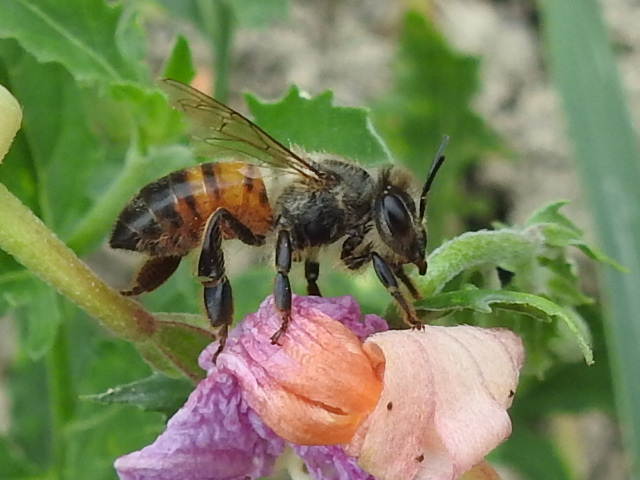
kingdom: Animalia
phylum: Arthropoda
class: Insecta
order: Hymenoptera
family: Apidae
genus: Apis
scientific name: Apis mellifera
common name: Honey bee
